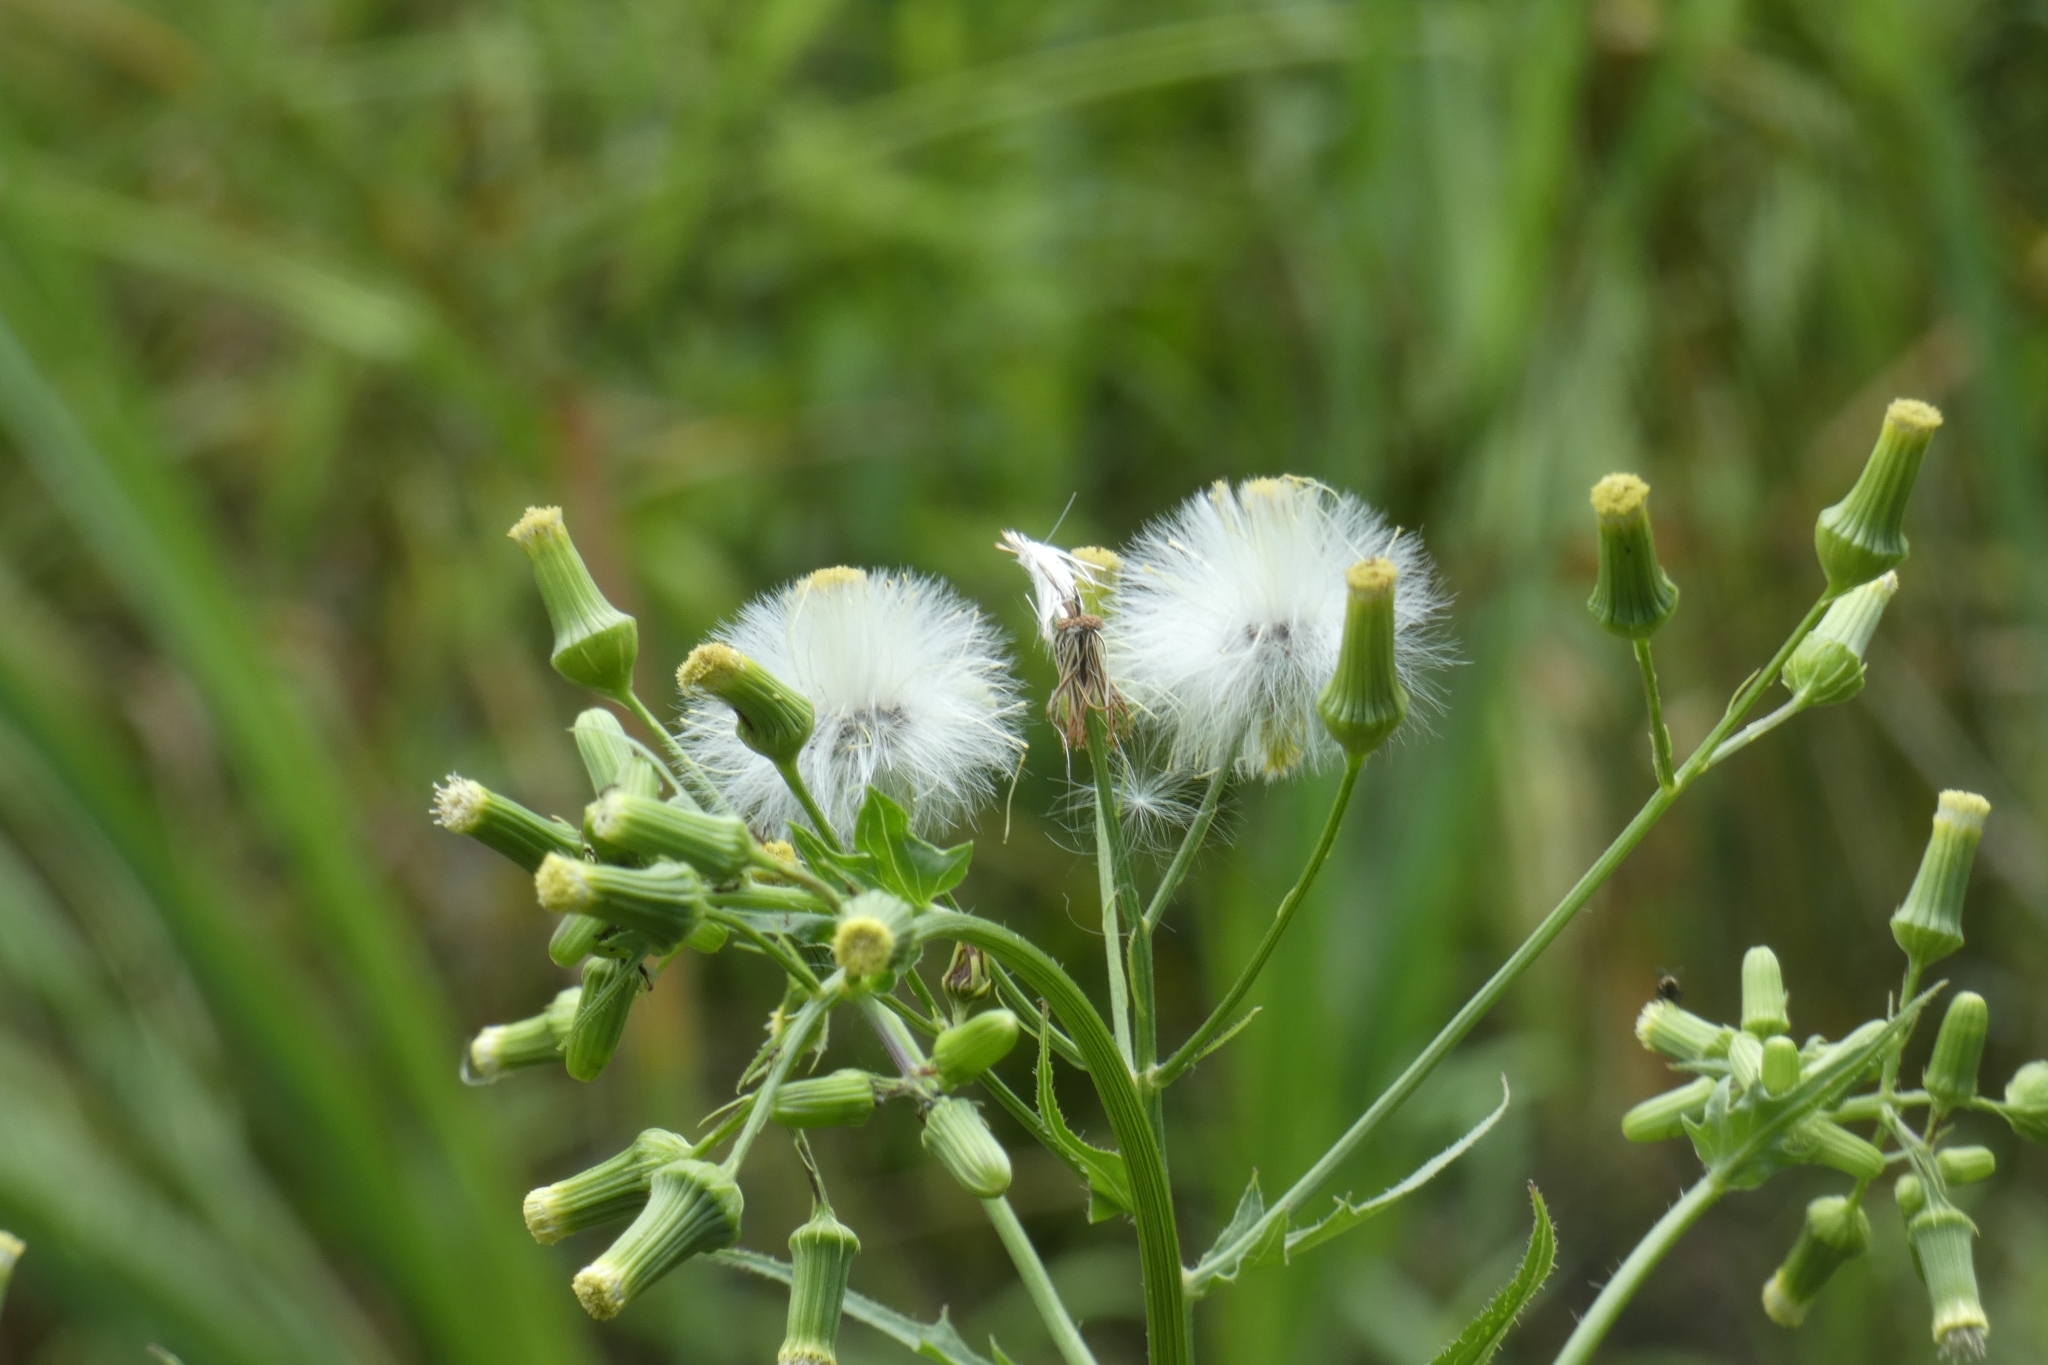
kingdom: Plantae
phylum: Tracheophyta
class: Magnoliopsida
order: Asterales
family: Asteraceae
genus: Erechtites
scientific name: Erechtites hieraciifolius
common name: American burnweed
